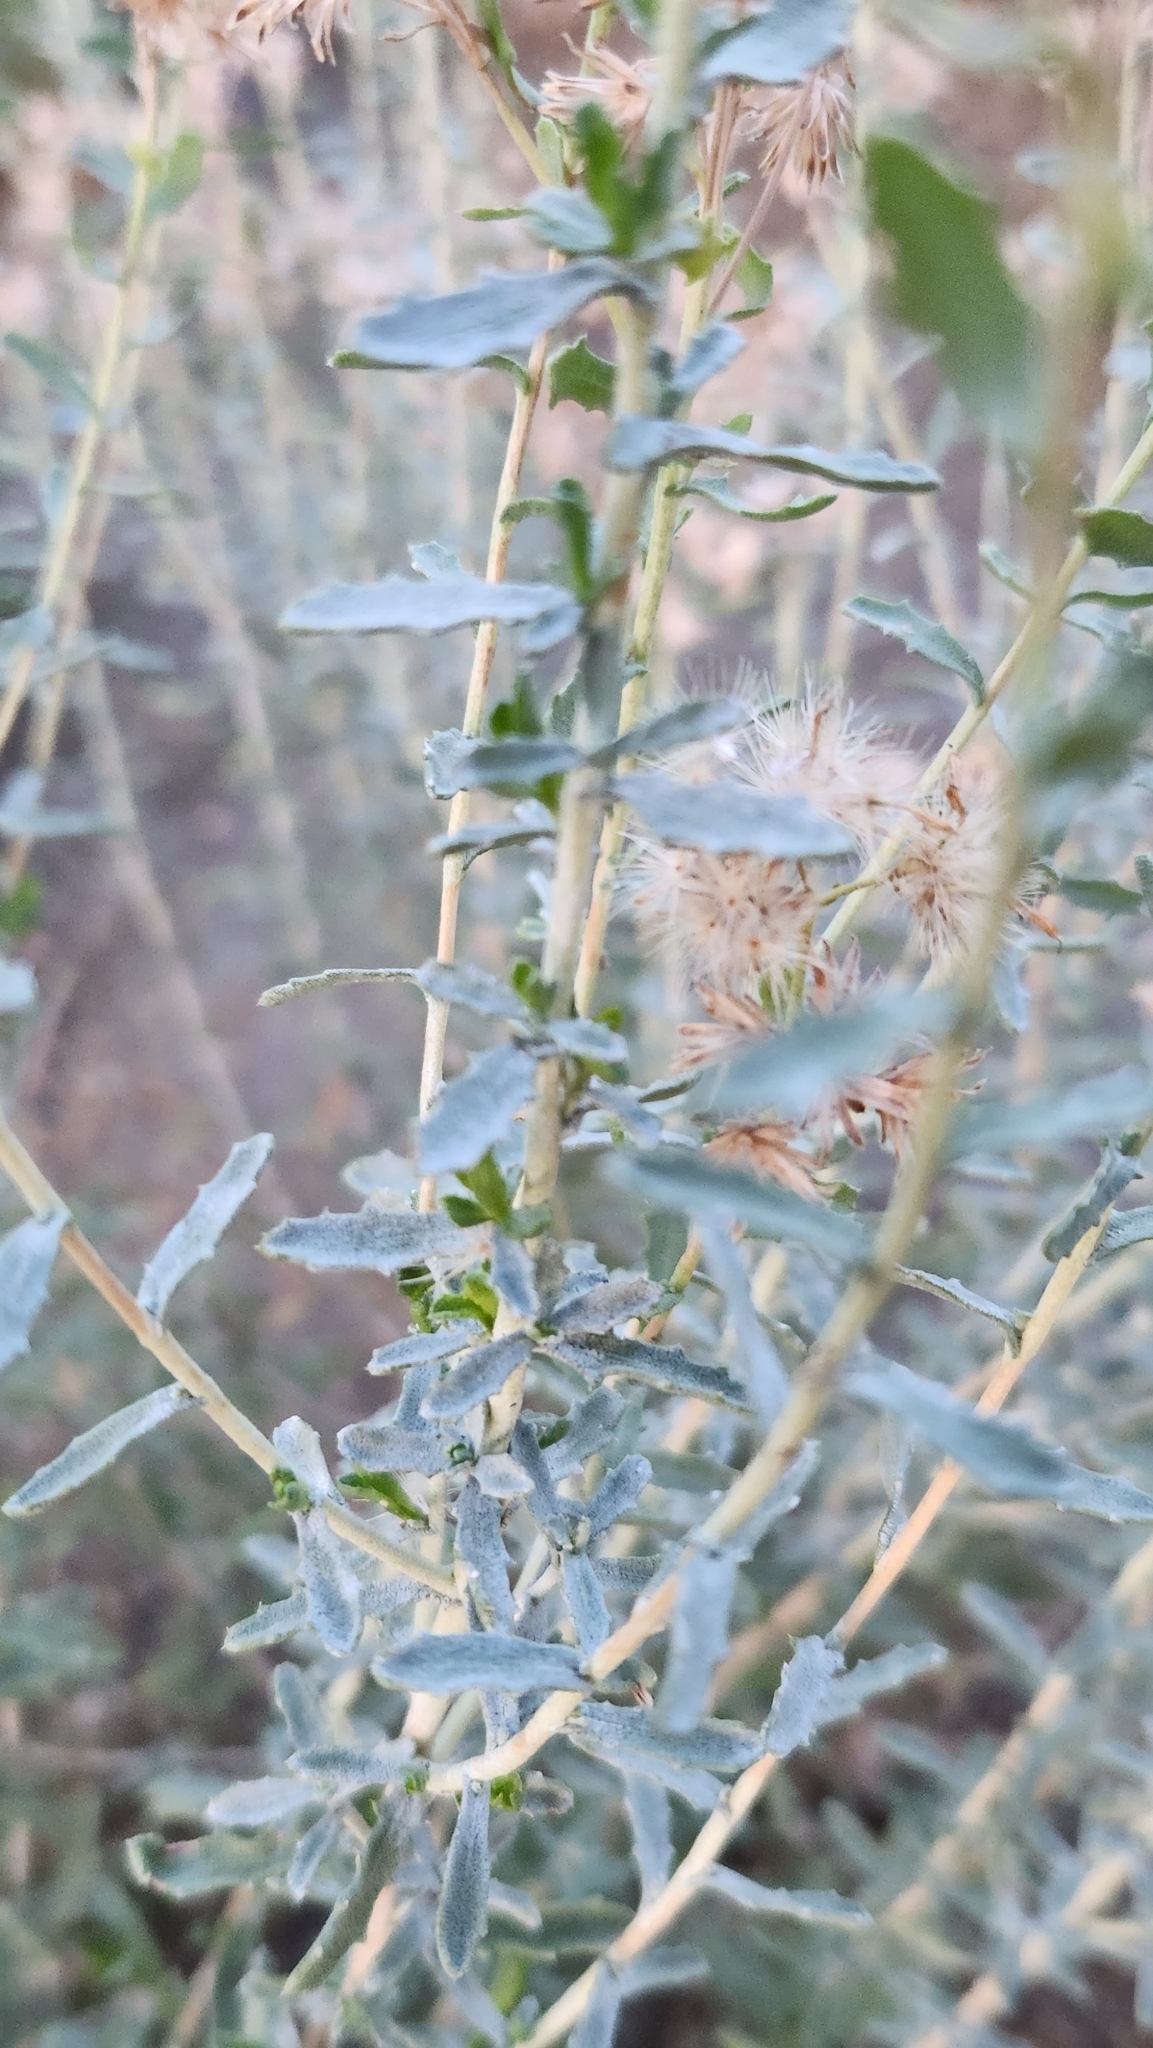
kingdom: Plantae
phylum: Tracheophyta
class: Magnoliopsida
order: Asterales
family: Asteraceae
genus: Isocoma
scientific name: Isocoma acradenia
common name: Alkali jimmyweed
